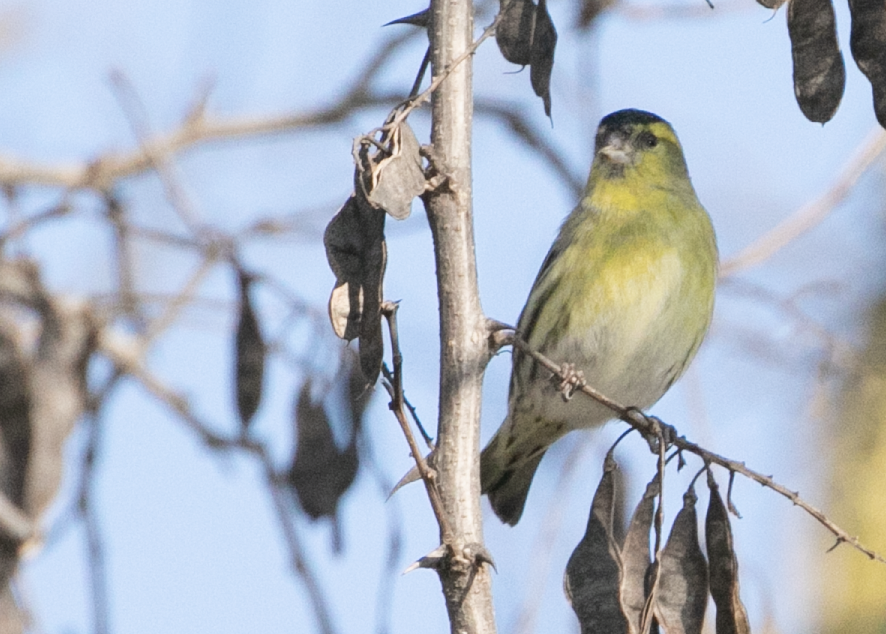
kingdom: Animalia
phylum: Chordata
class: Aves
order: Passeriformes
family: Fringillidae
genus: Spinus
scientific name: Spinus spinus
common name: Eurasian siskin
